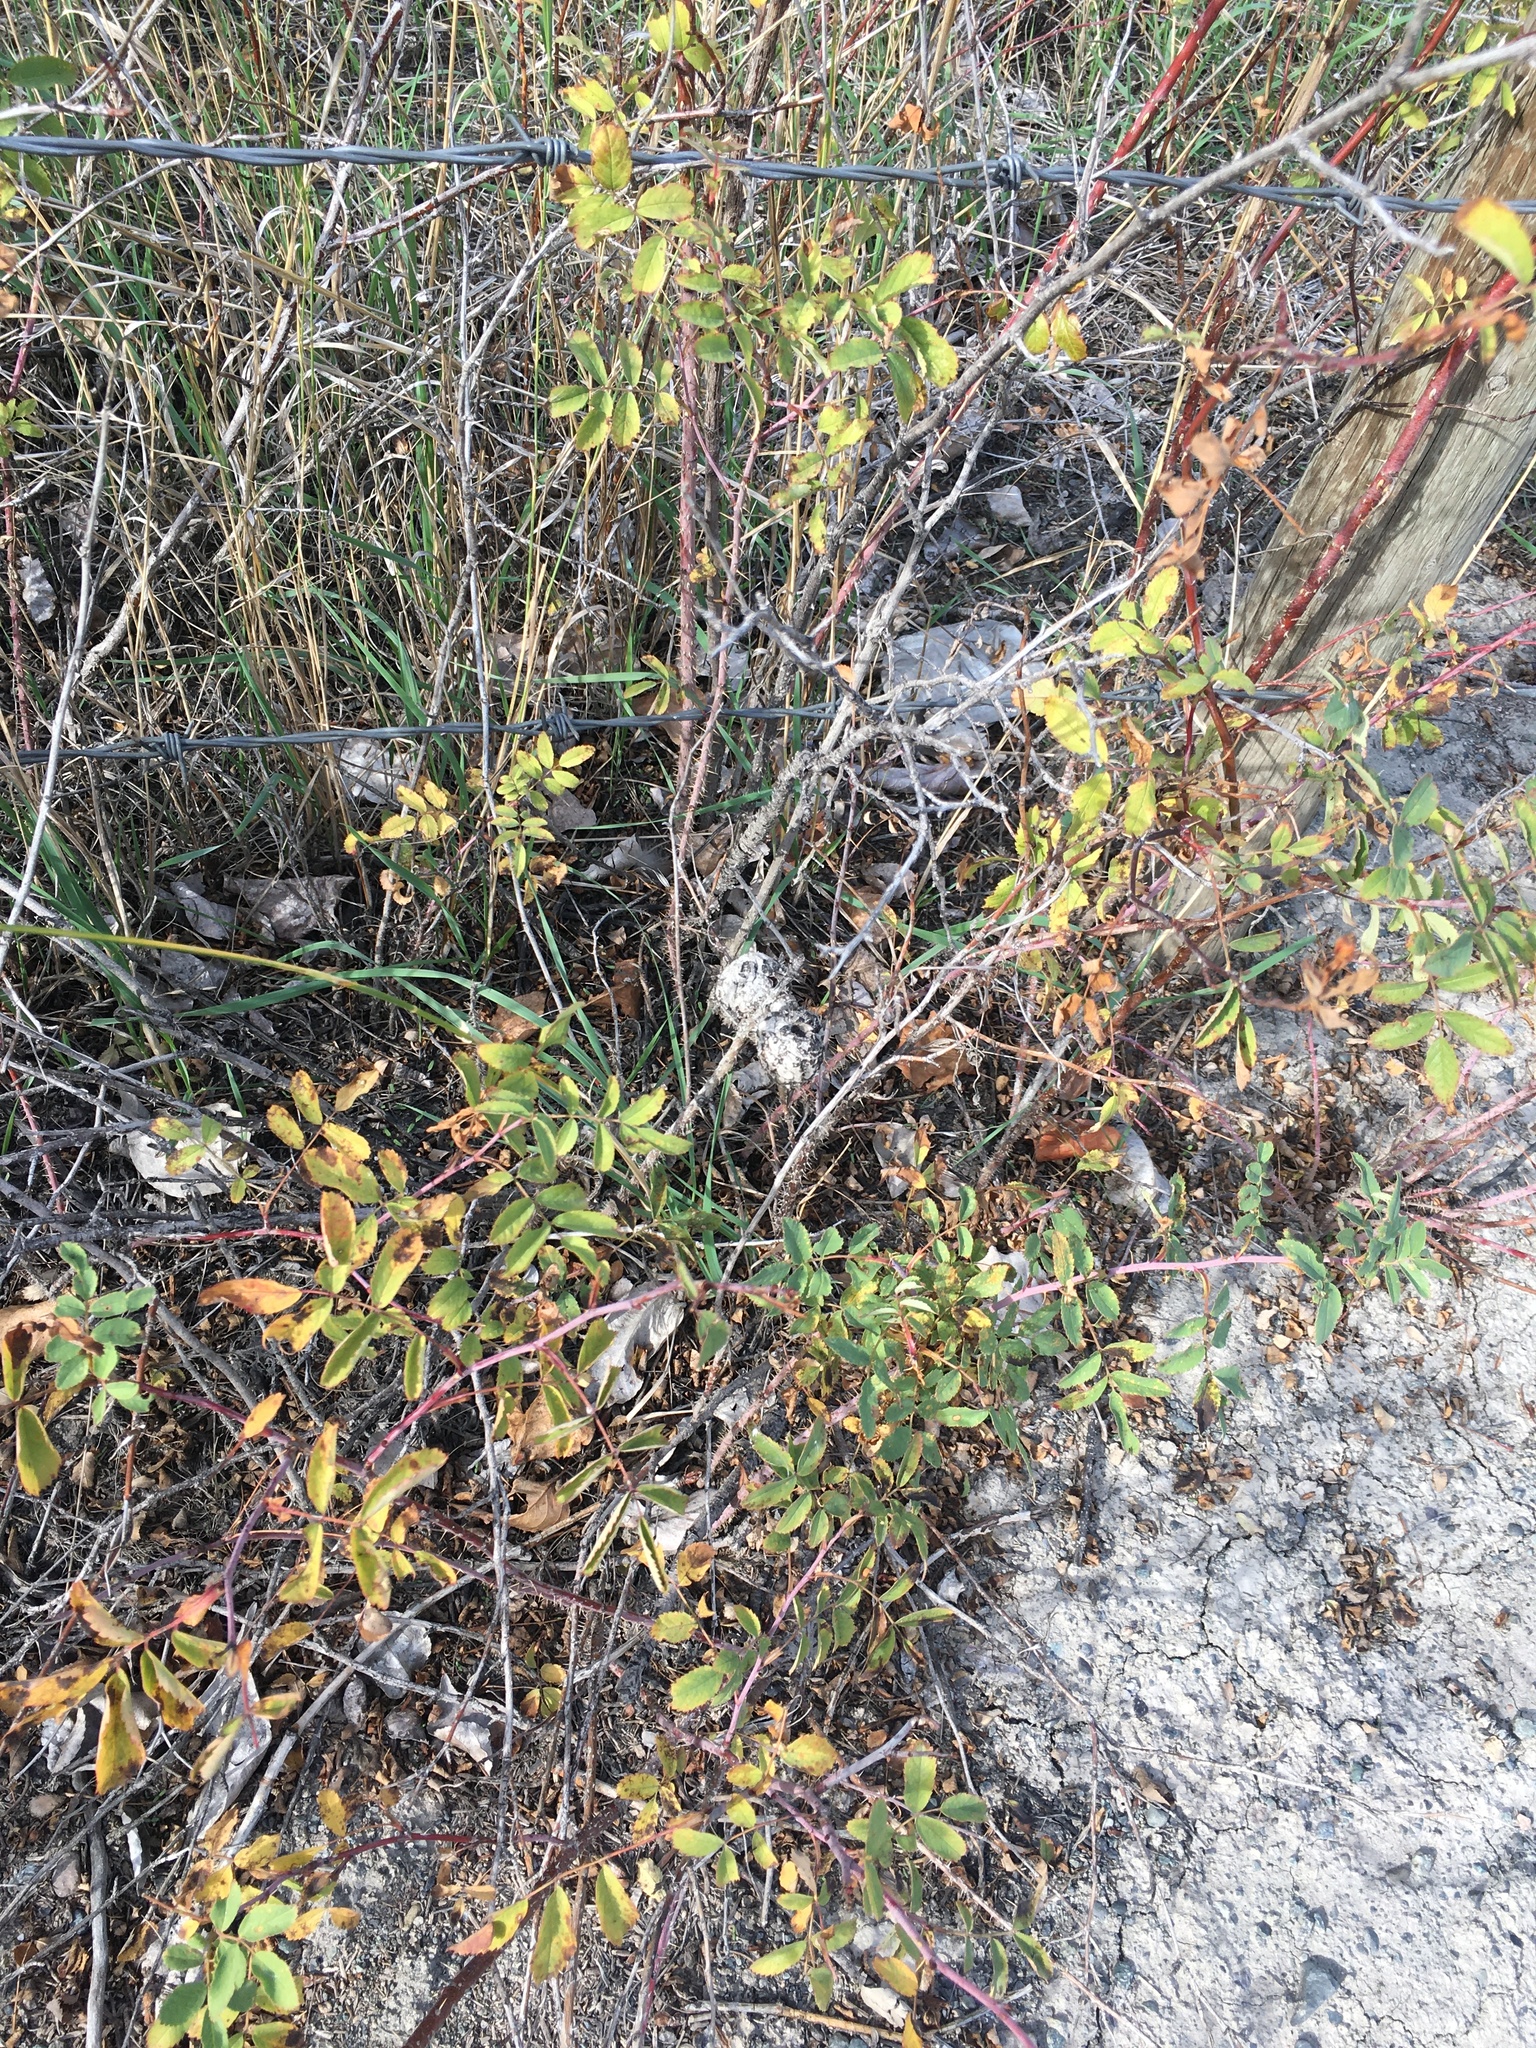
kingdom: Animalia
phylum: Arthropoda
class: Insecta
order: Hymenoptera
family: Cynipidae
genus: Diplolepis
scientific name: Diplolepis spinosa
